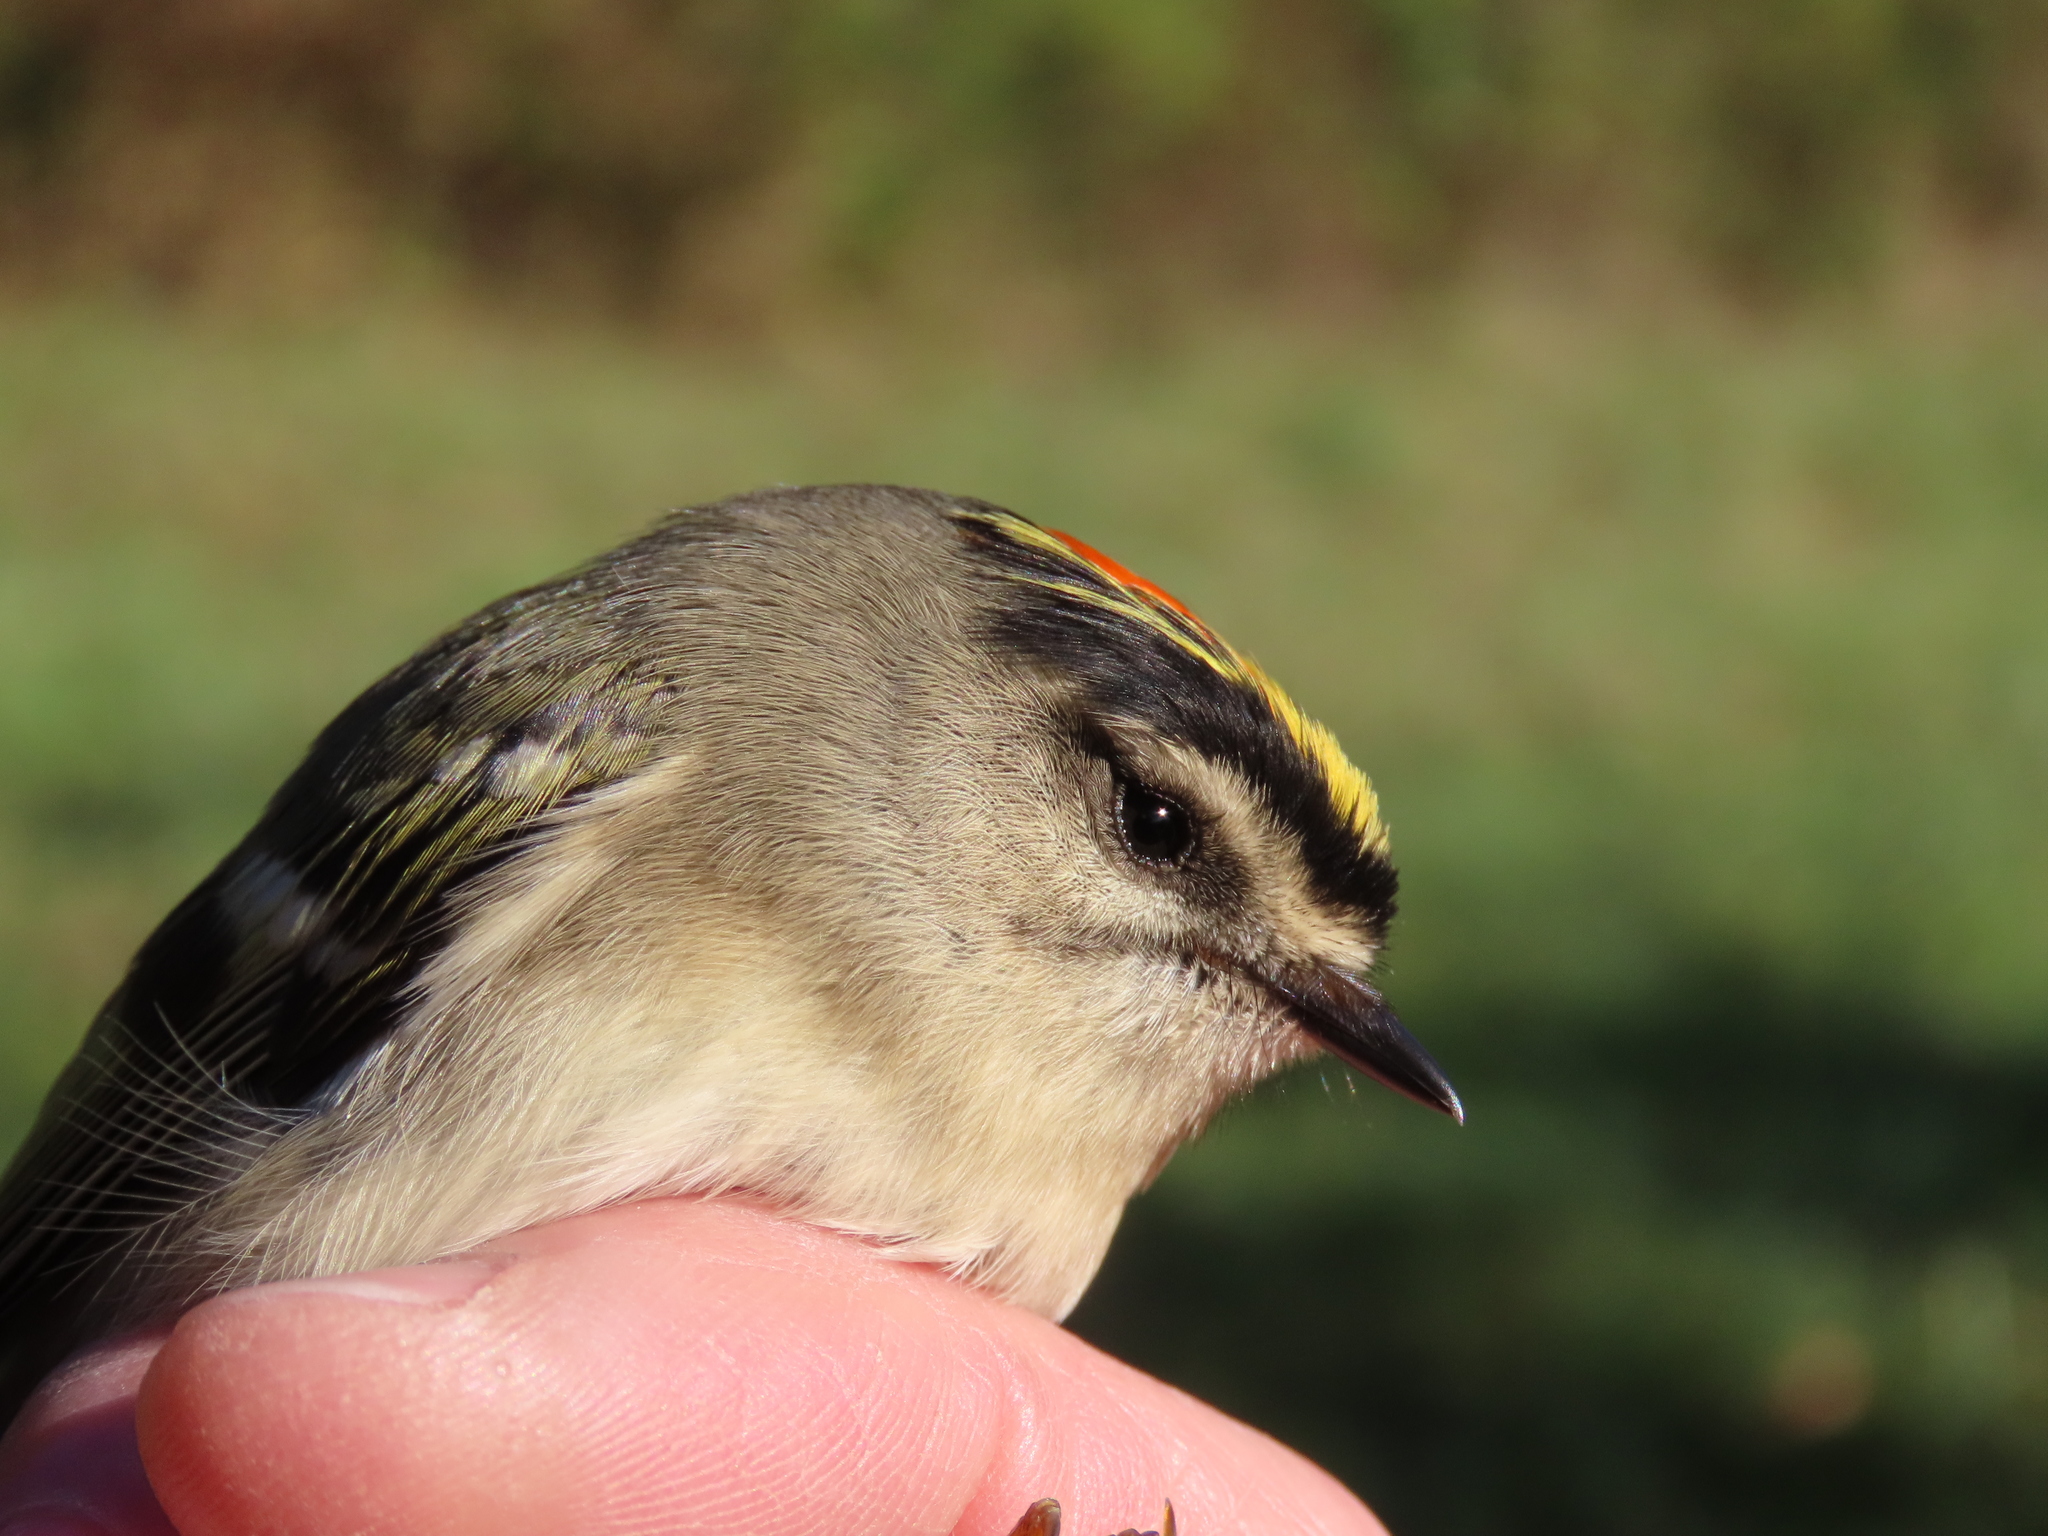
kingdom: Animalia
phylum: Chordata
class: Aves
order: Passeriformes
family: Regulidae
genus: Regulus
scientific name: Regulus satrapa
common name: Golden-crowned kinglet
